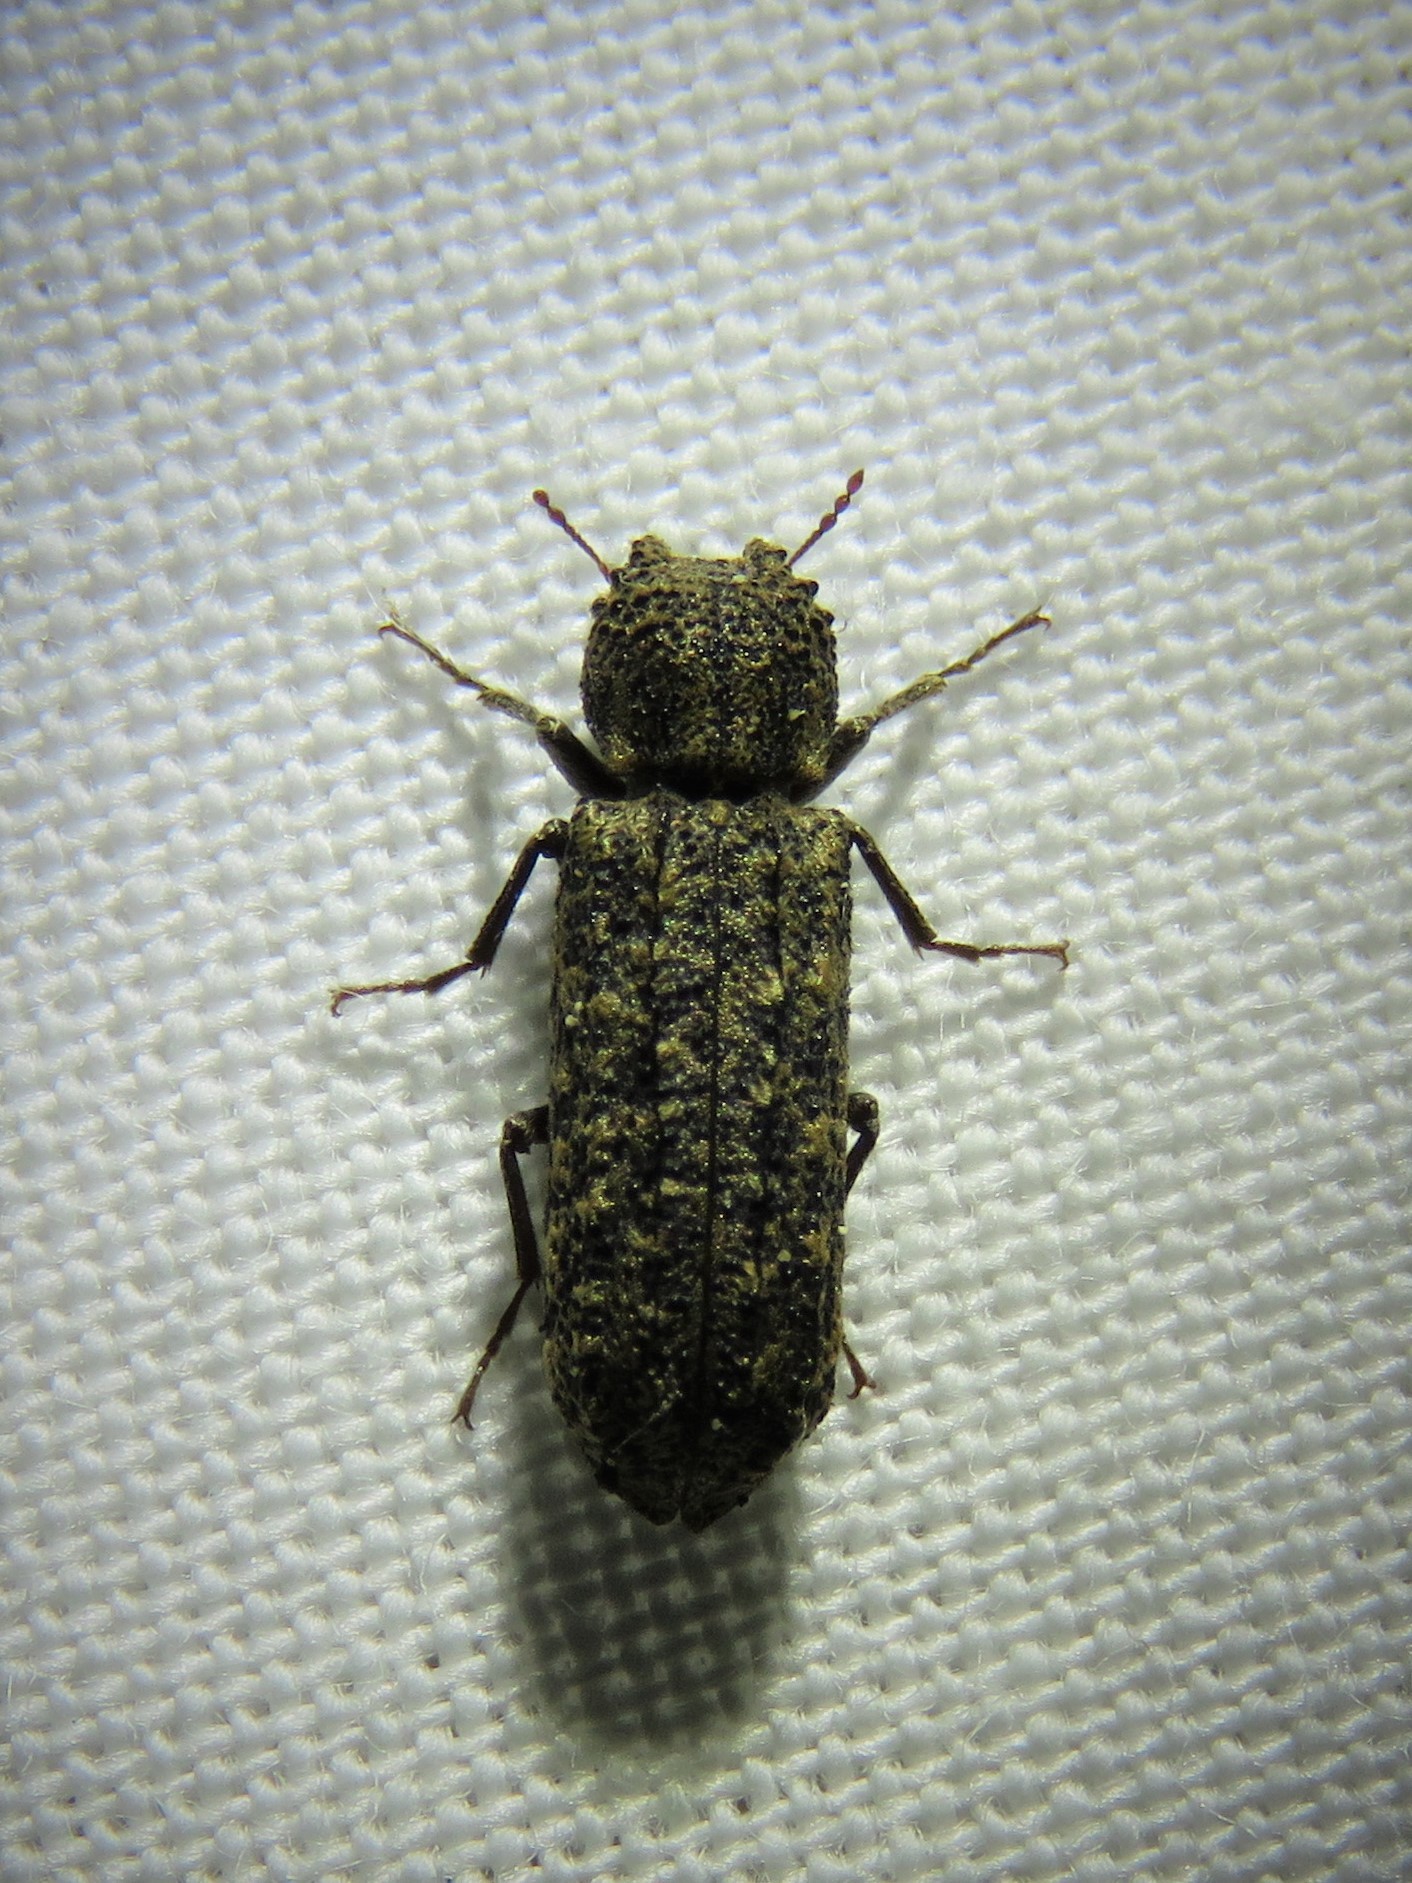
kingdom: Animalia
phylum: Arthropoda
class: Insecta
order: Coleoptera
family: Bostrichidae
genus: Lichenophanes
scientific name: Lichenophanes bicornis
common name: Two-horned powder-post beetle
